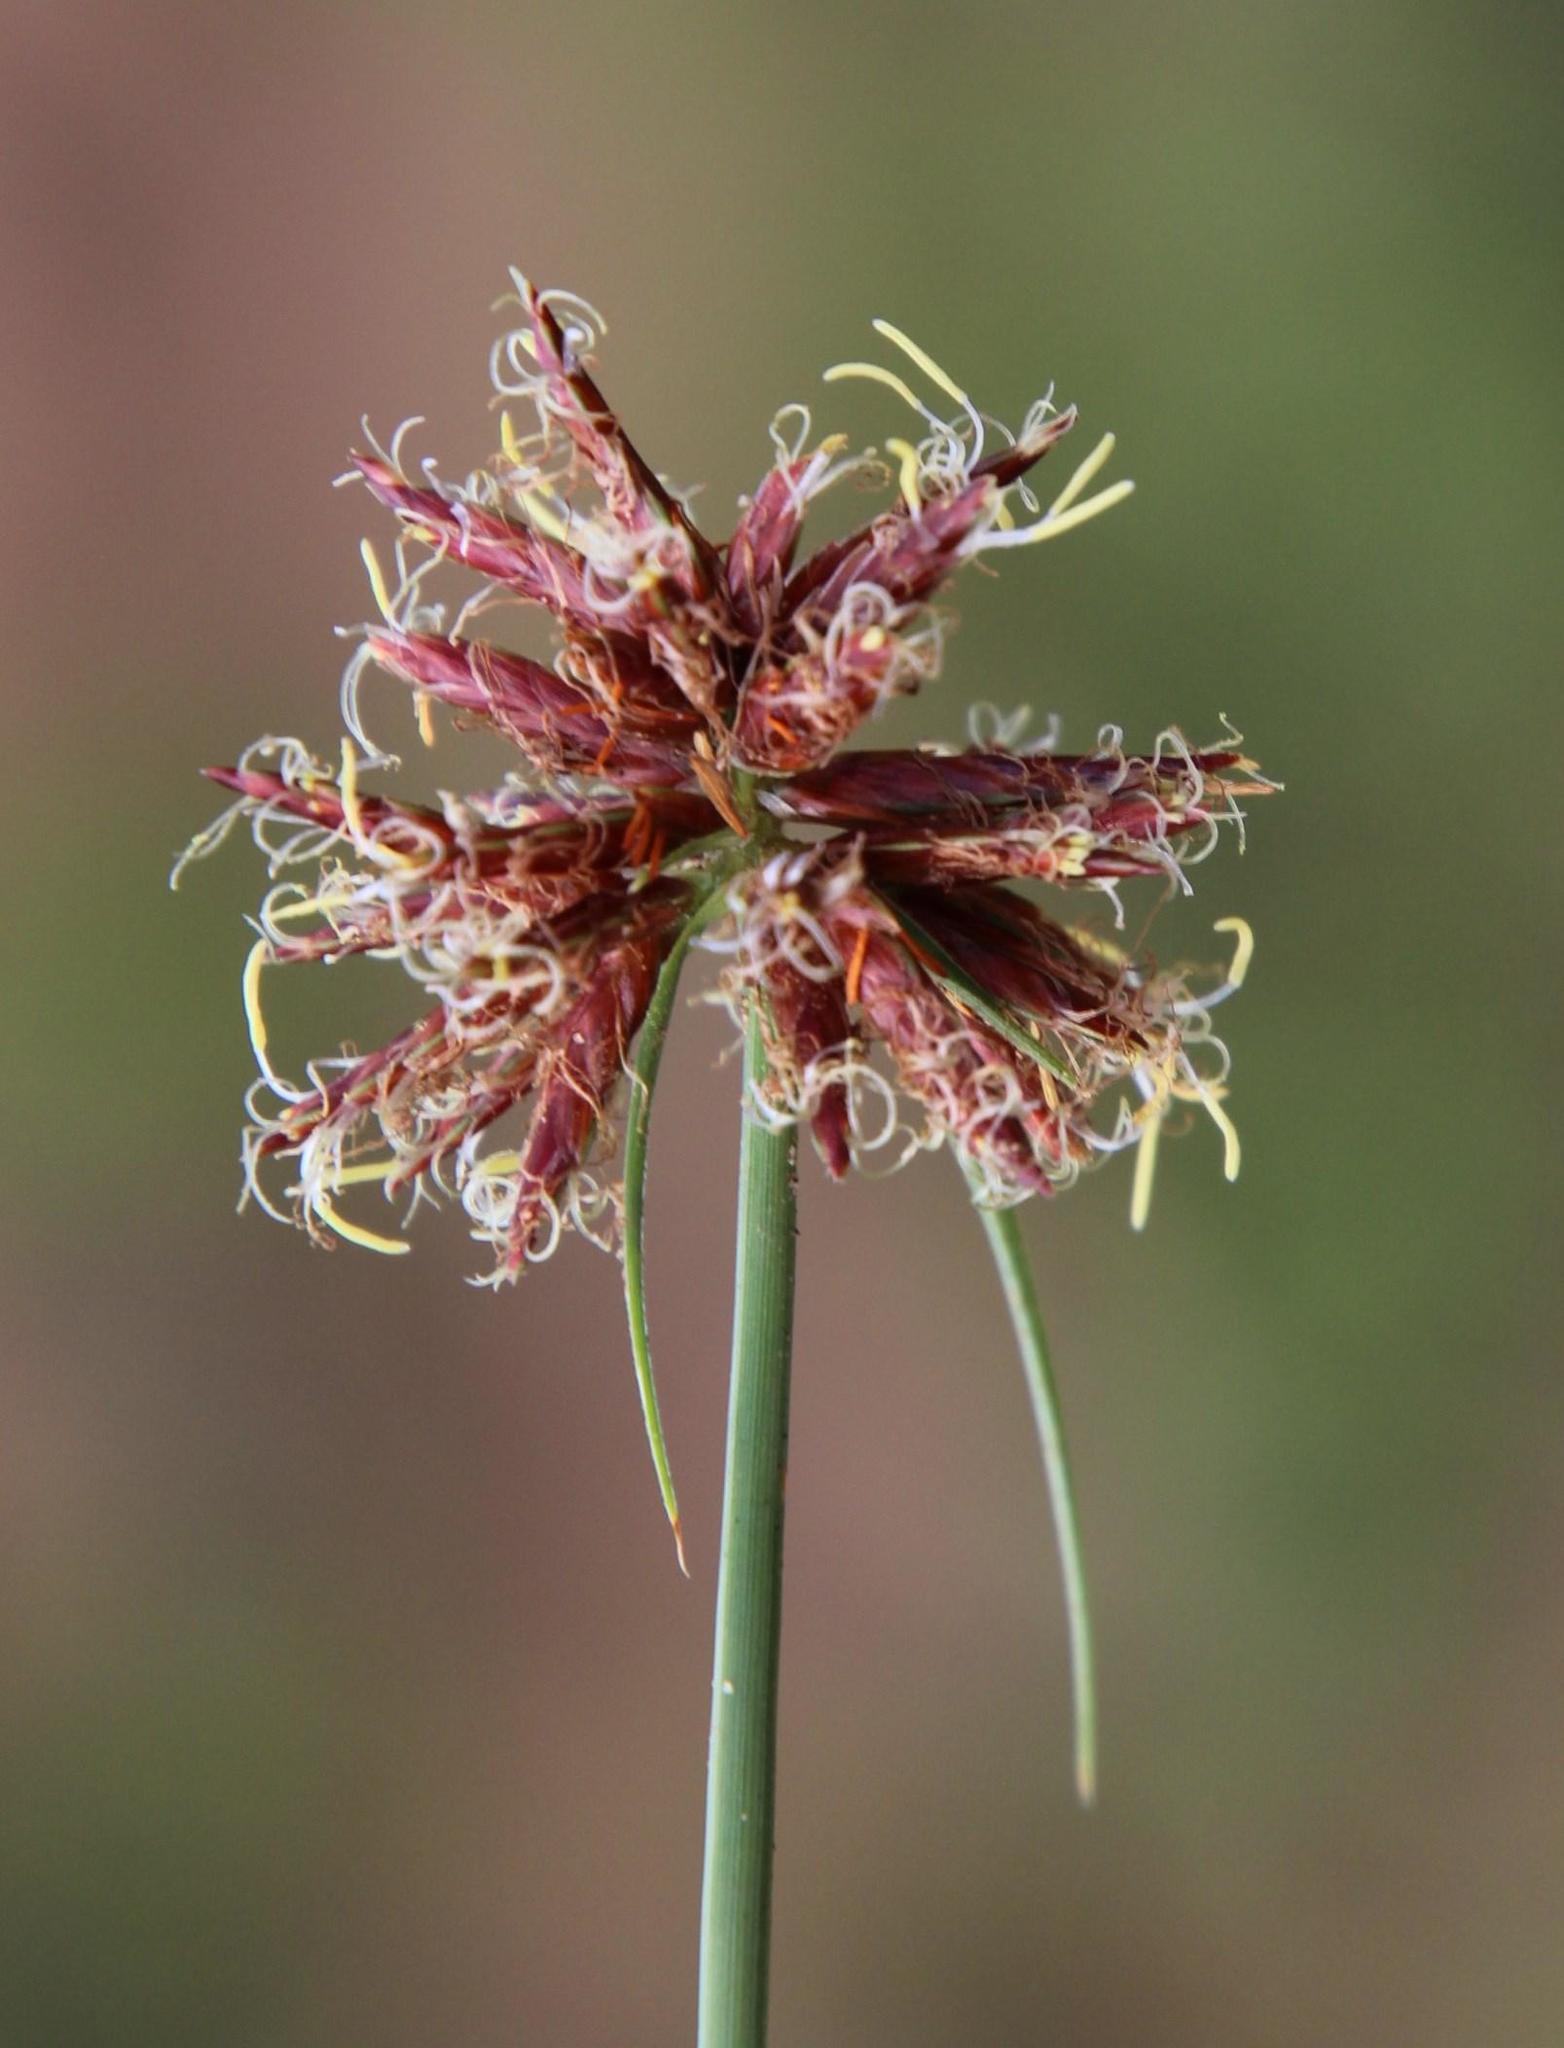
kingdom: Plantae
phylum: Tracheophyta
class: Liliopsida
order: Poales
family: Cyperaceae
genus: Cyperus
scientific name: Cyperus usitatus
